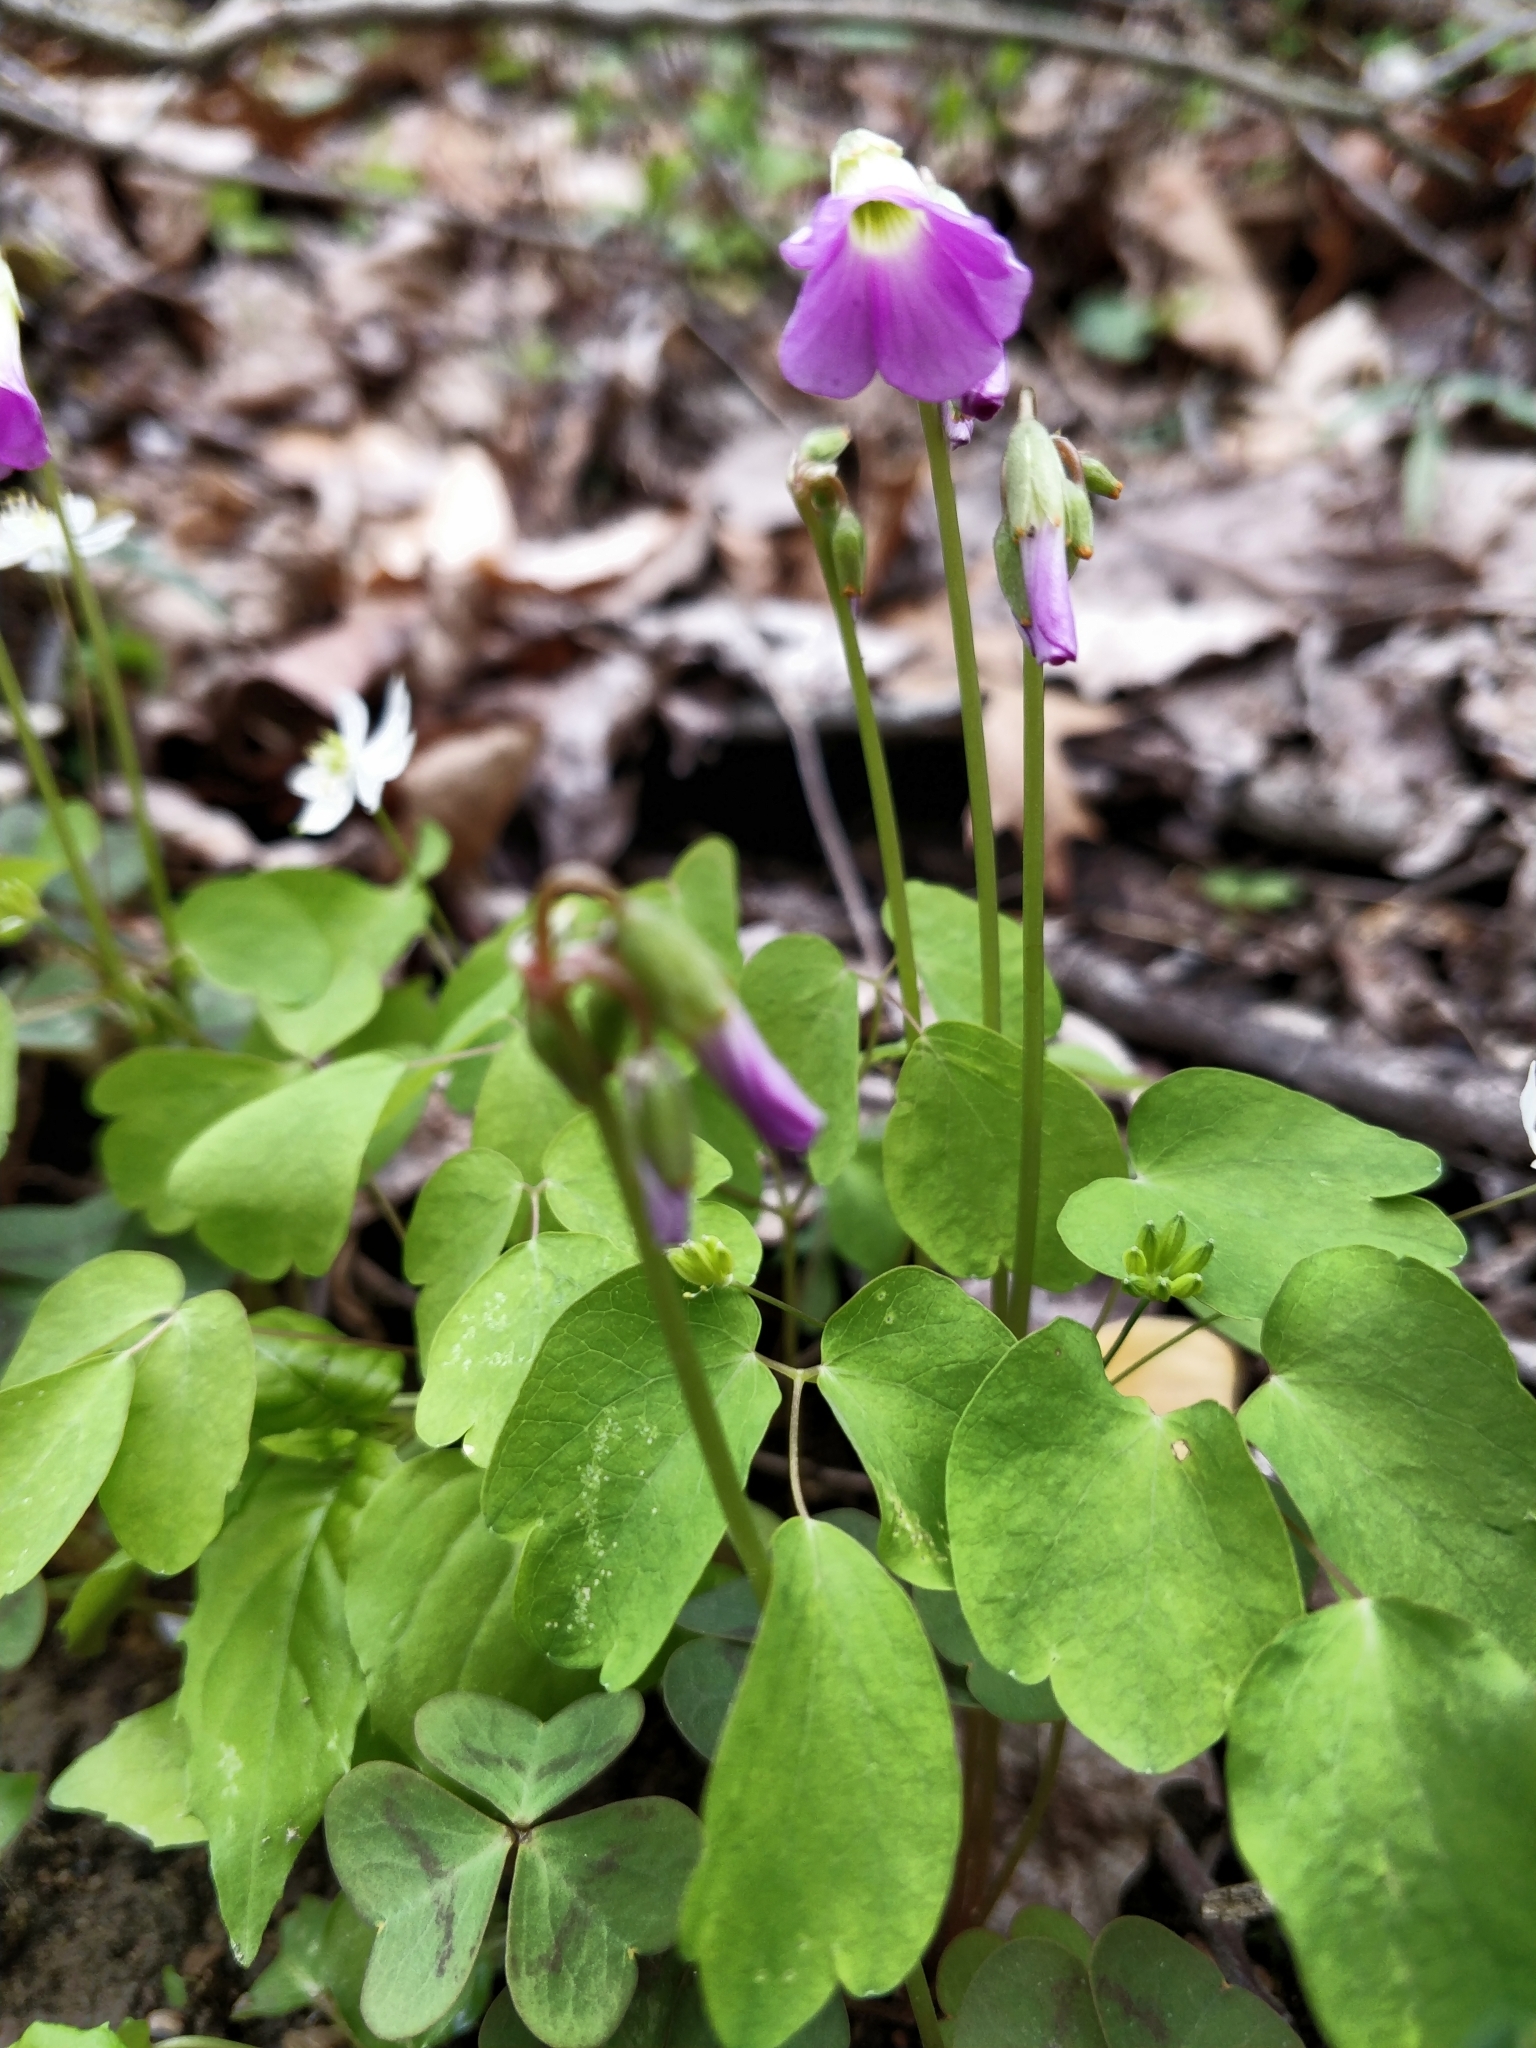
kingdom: Plantae
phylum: Tracheophyta
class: Magnoliopsida
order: Oxalidales
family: Oxalidaceae
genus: Oxalis
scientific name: Oxalis violacea
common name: Violet wood-sorrel
